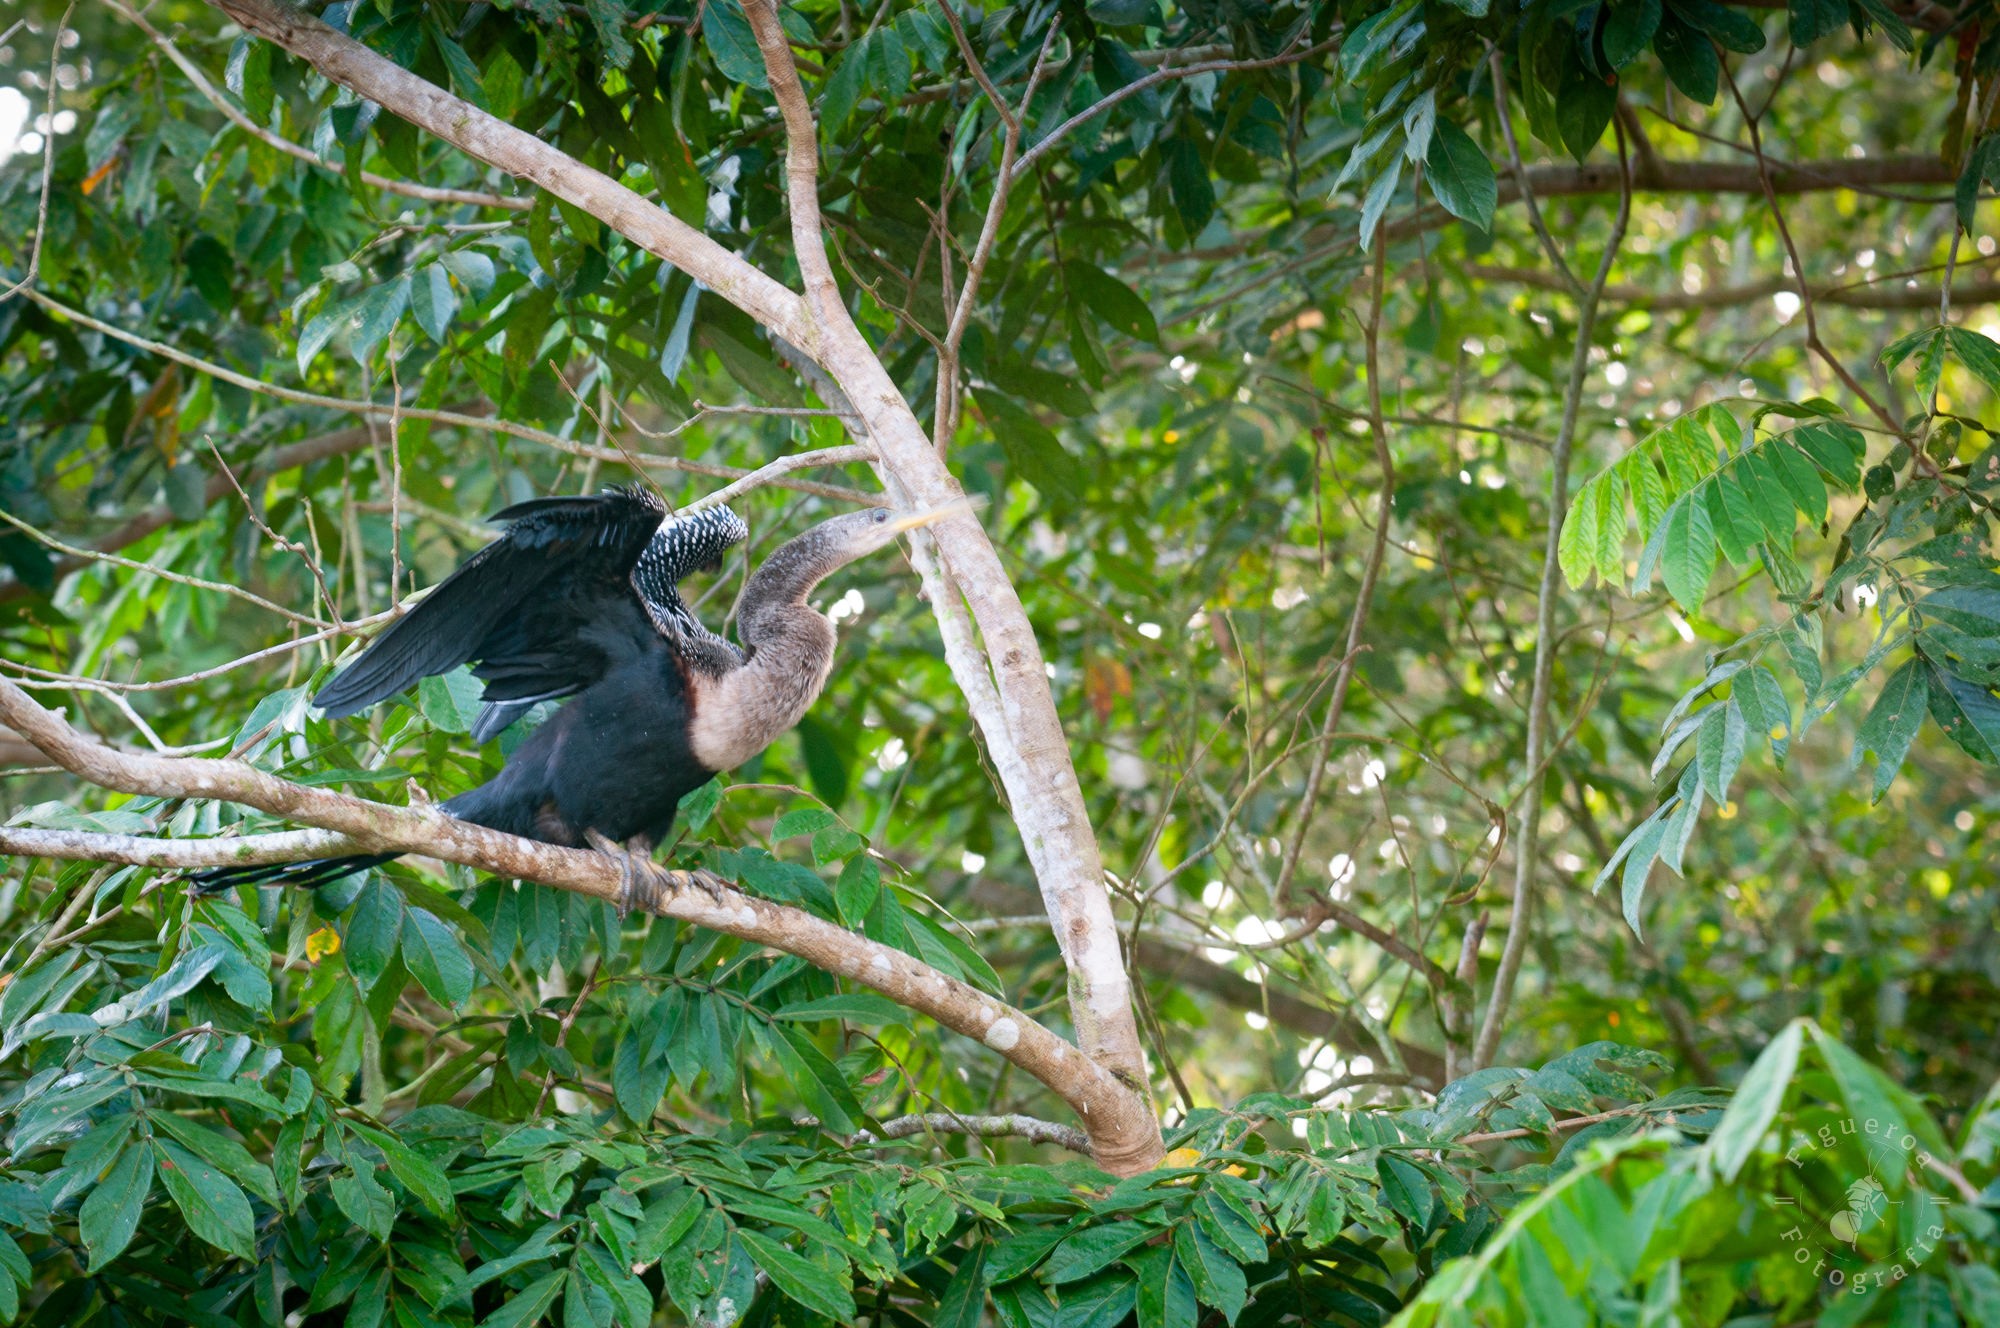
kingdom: Animalia
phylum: Chordata
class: Aves
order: Suliformes
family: Anhingidae
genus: Anhinga
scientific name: Anhinga anhinga
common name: Anhinga
